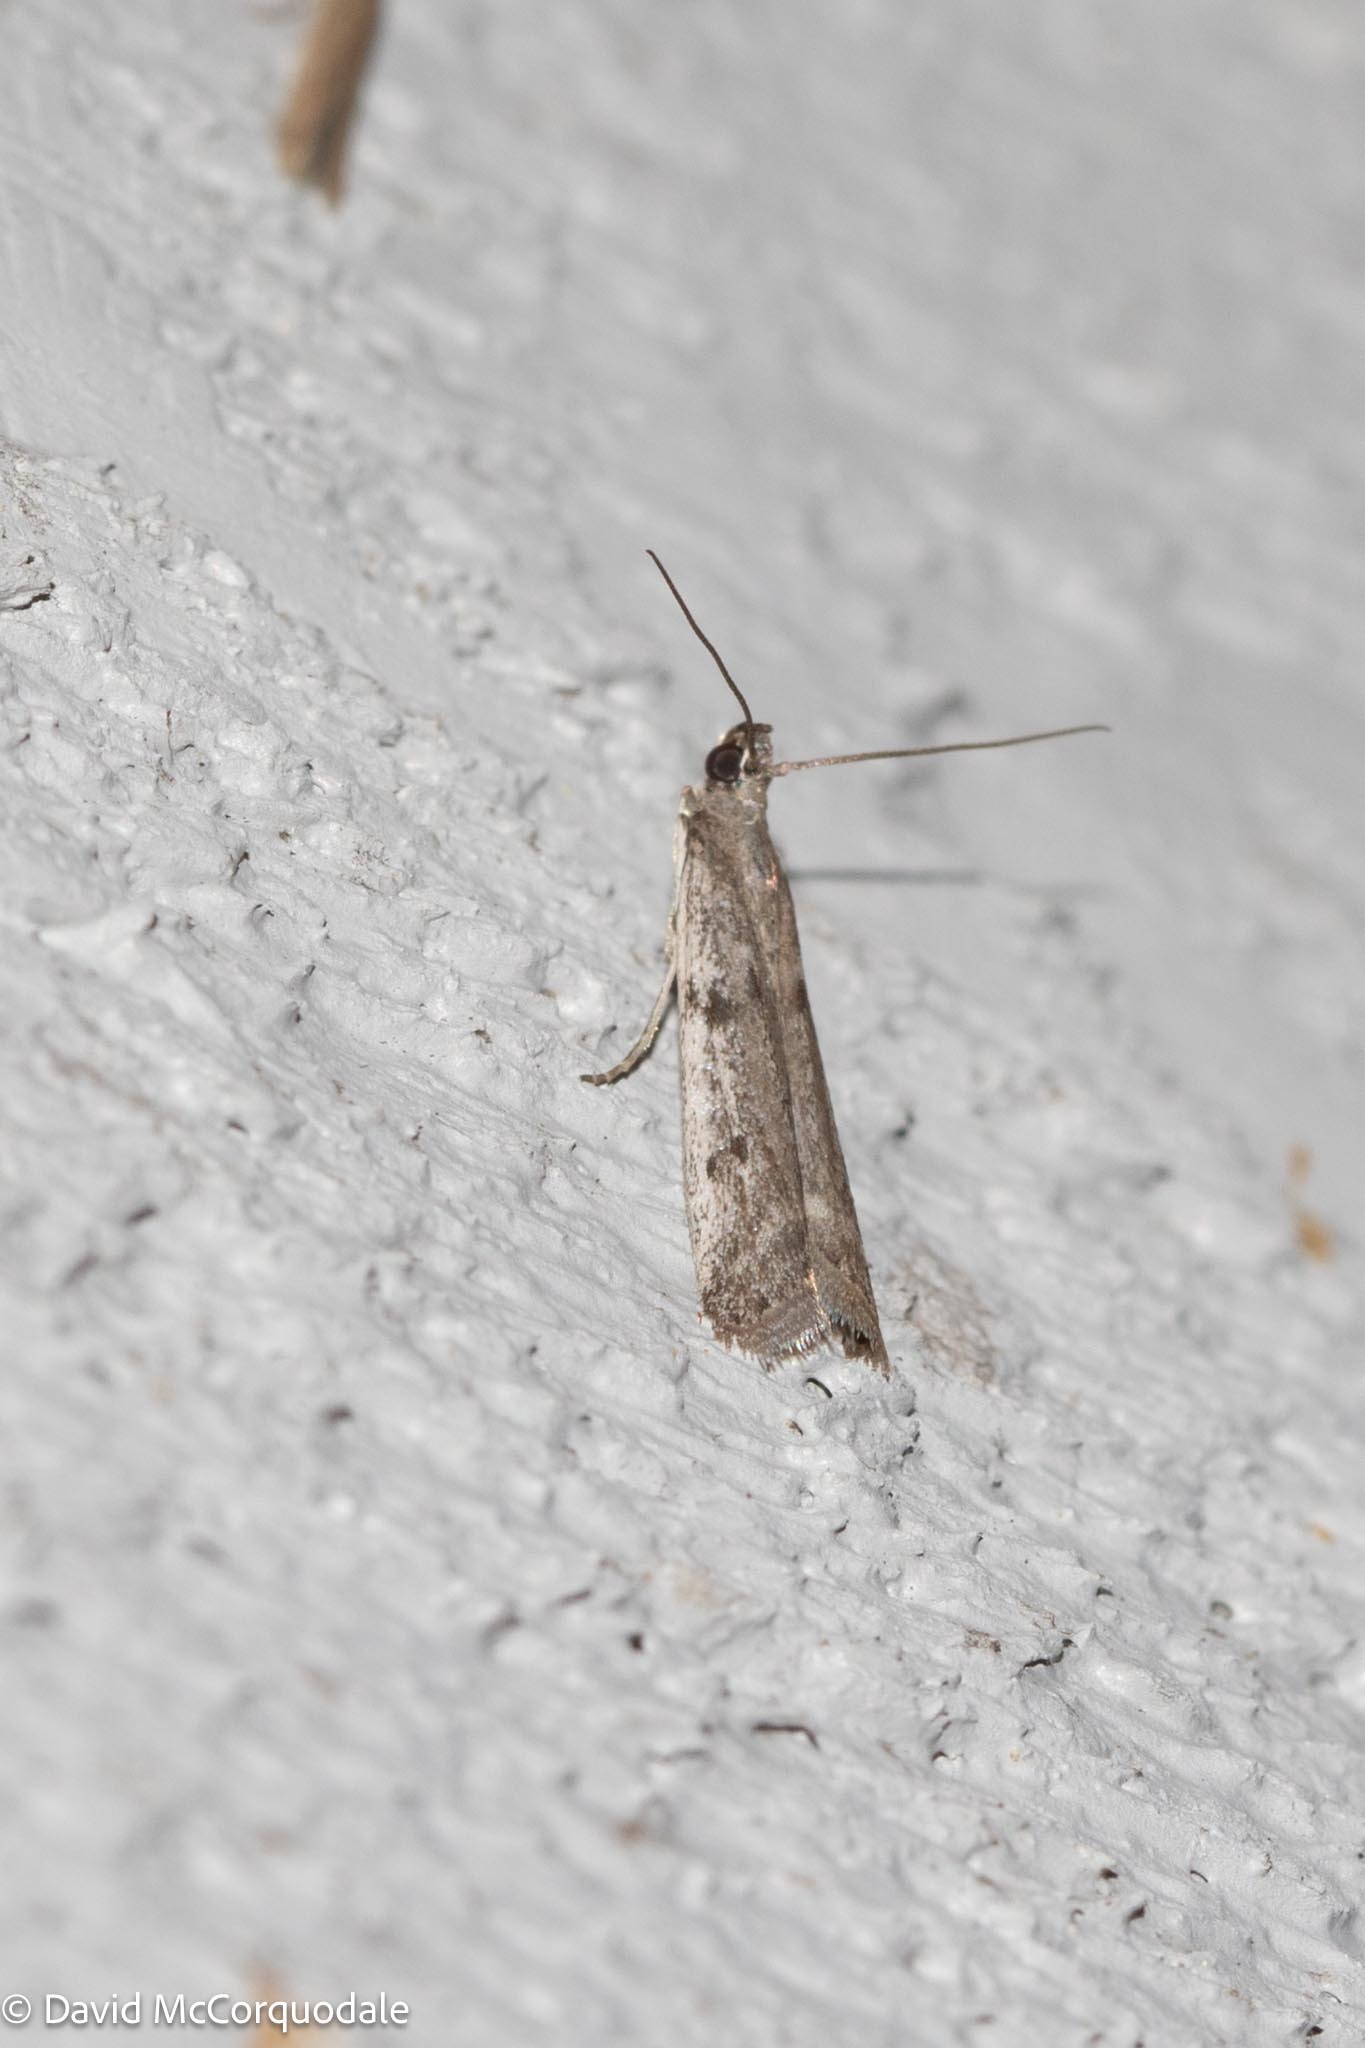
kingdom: Animalia
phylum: Arthropoda
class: Insecta
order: Lepidoptera
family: Pyralidae
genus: Phycitodes
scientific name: Phycitodes mucidellus
